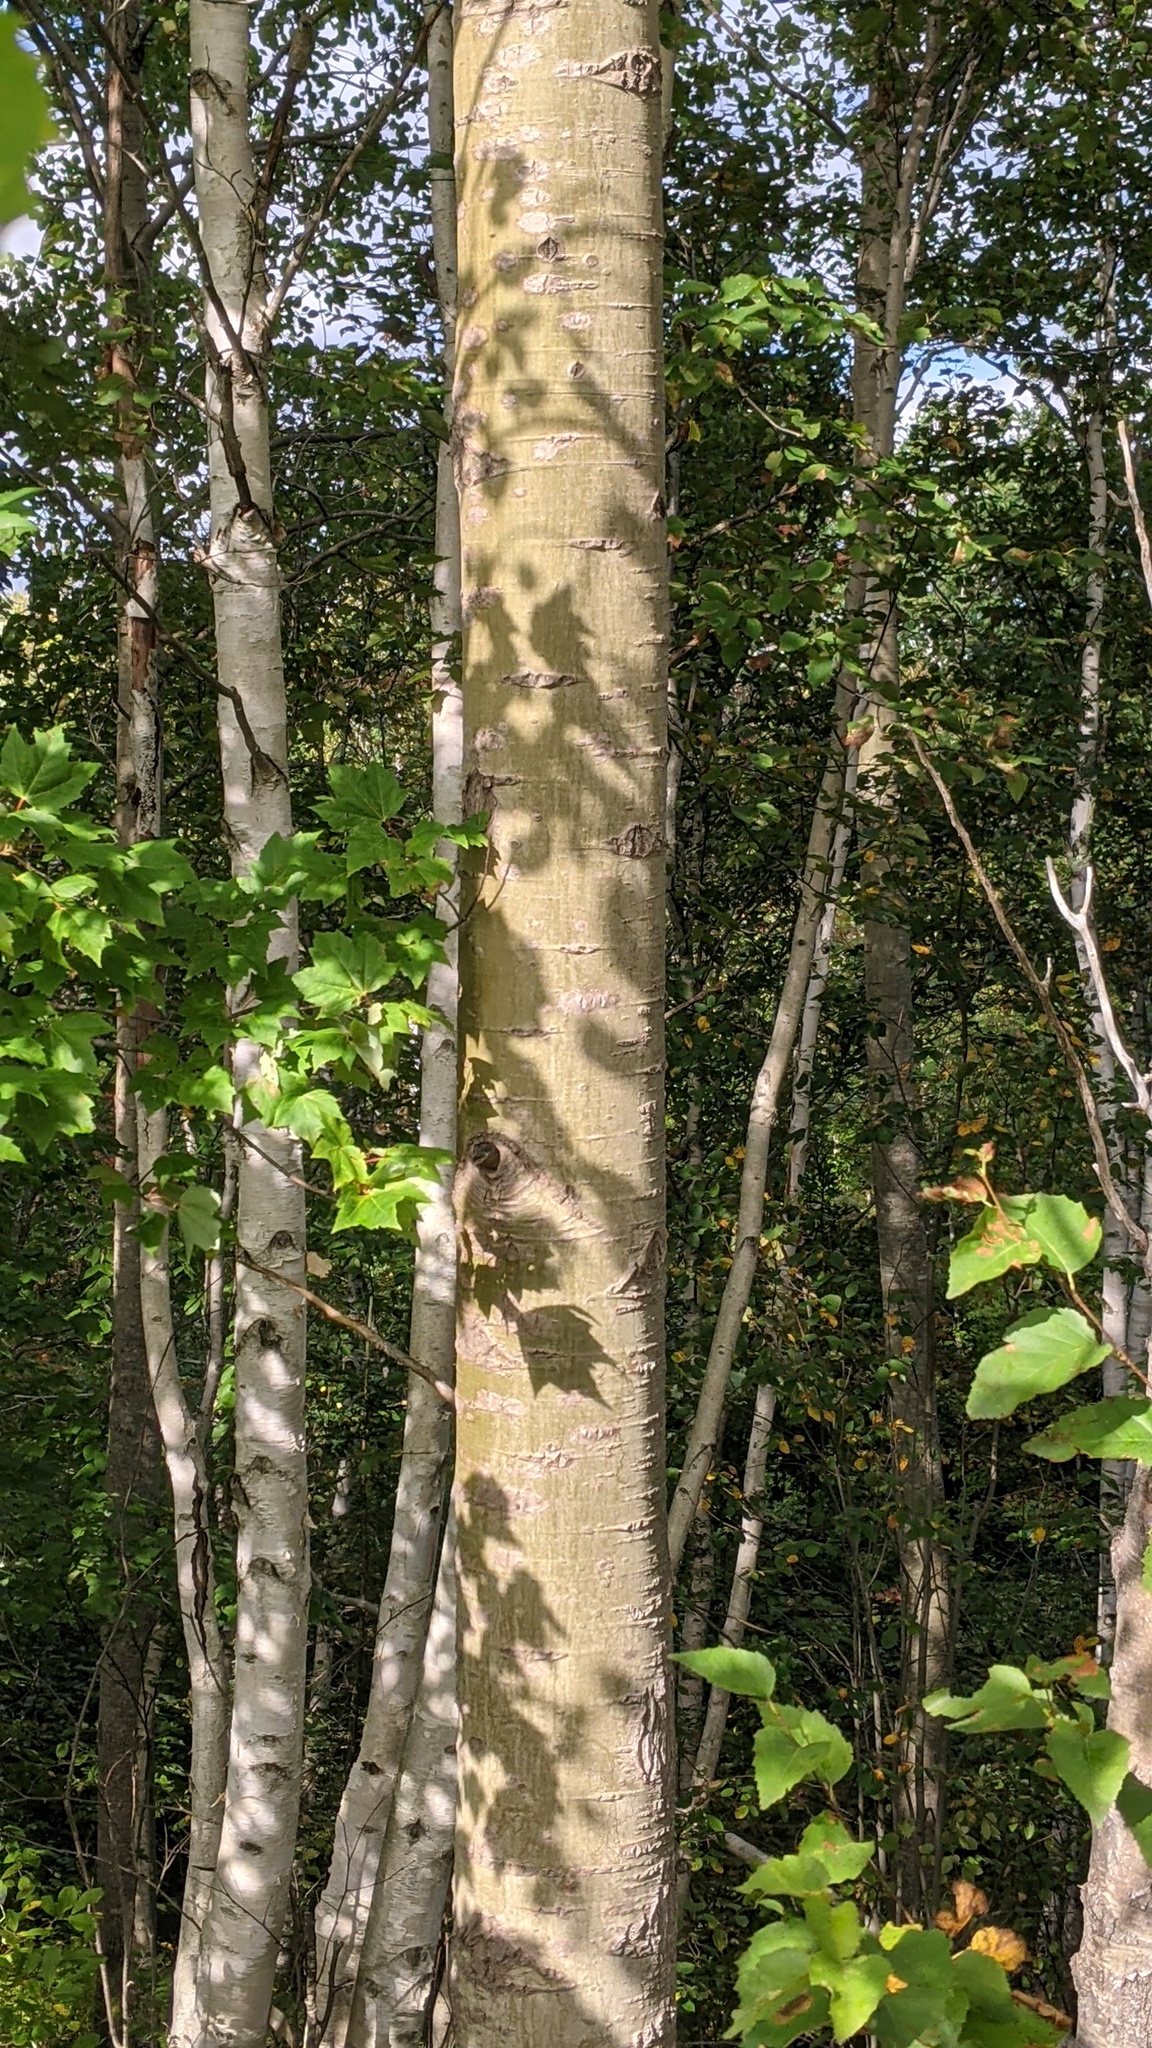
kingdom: Plantae
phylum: Tracheophyta
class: Magnoliopsida
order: Malpighiales
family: Salicaceae
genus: Populus
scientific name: Populus grandidentata
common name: Bigtooth aspen
